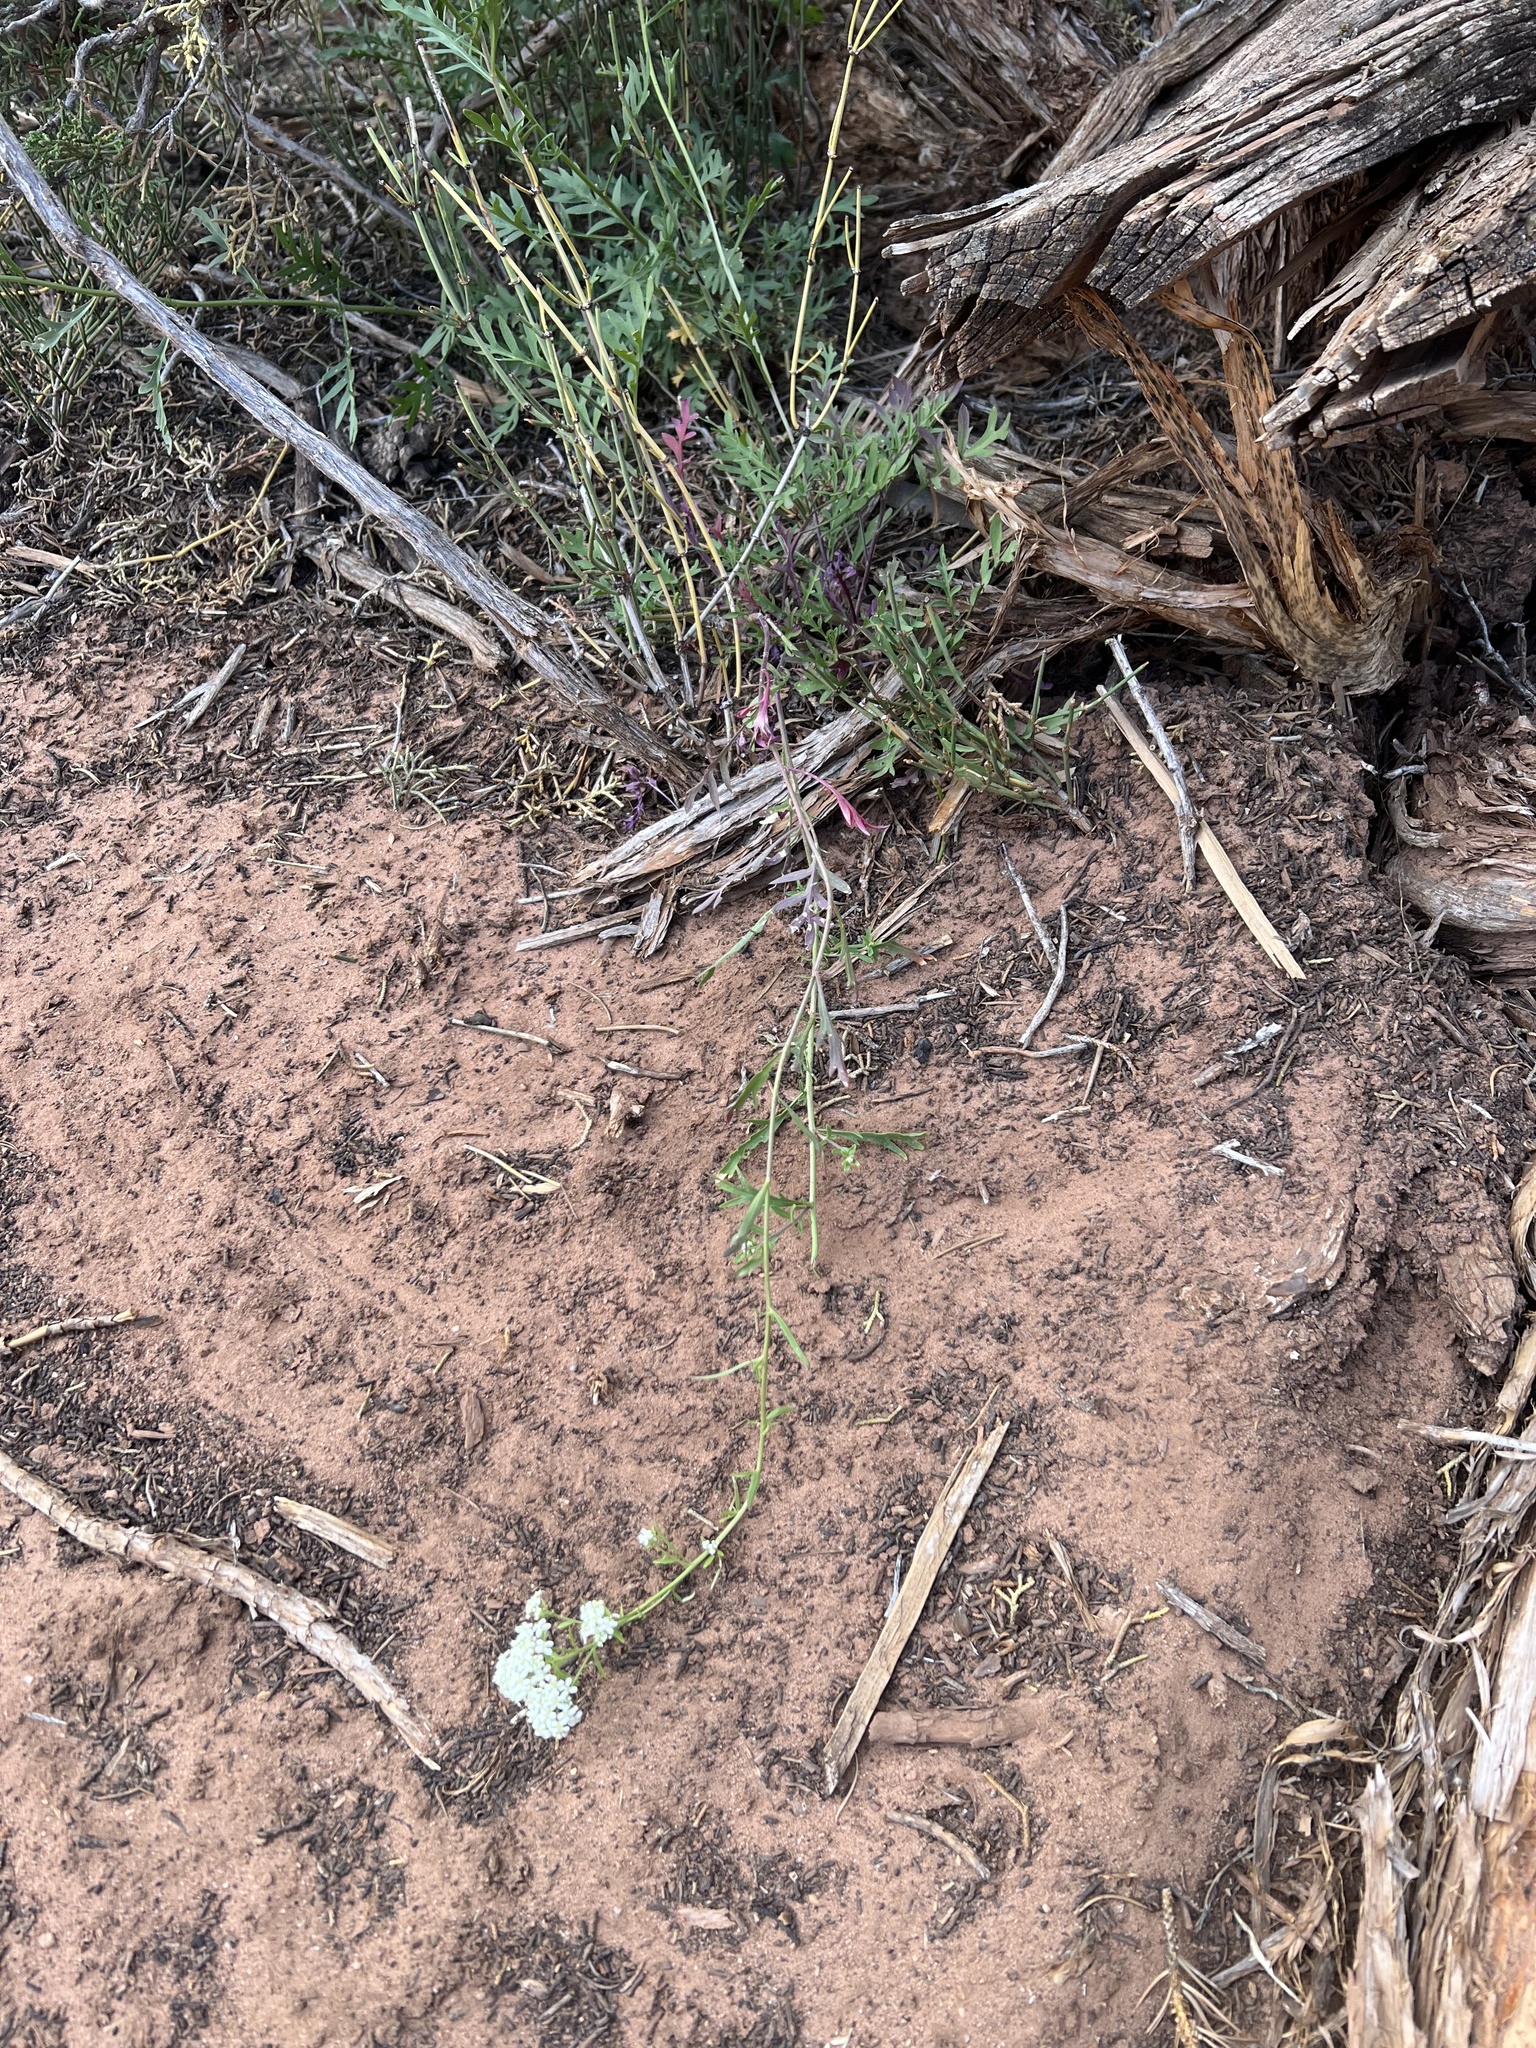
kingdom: Plantae
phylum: Tracheophyta
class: Magnoliopsida
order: Brassicales
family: Brassicaceae
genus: Lepidium
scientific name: Lepidium montanum
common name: Mountain pepperplant
